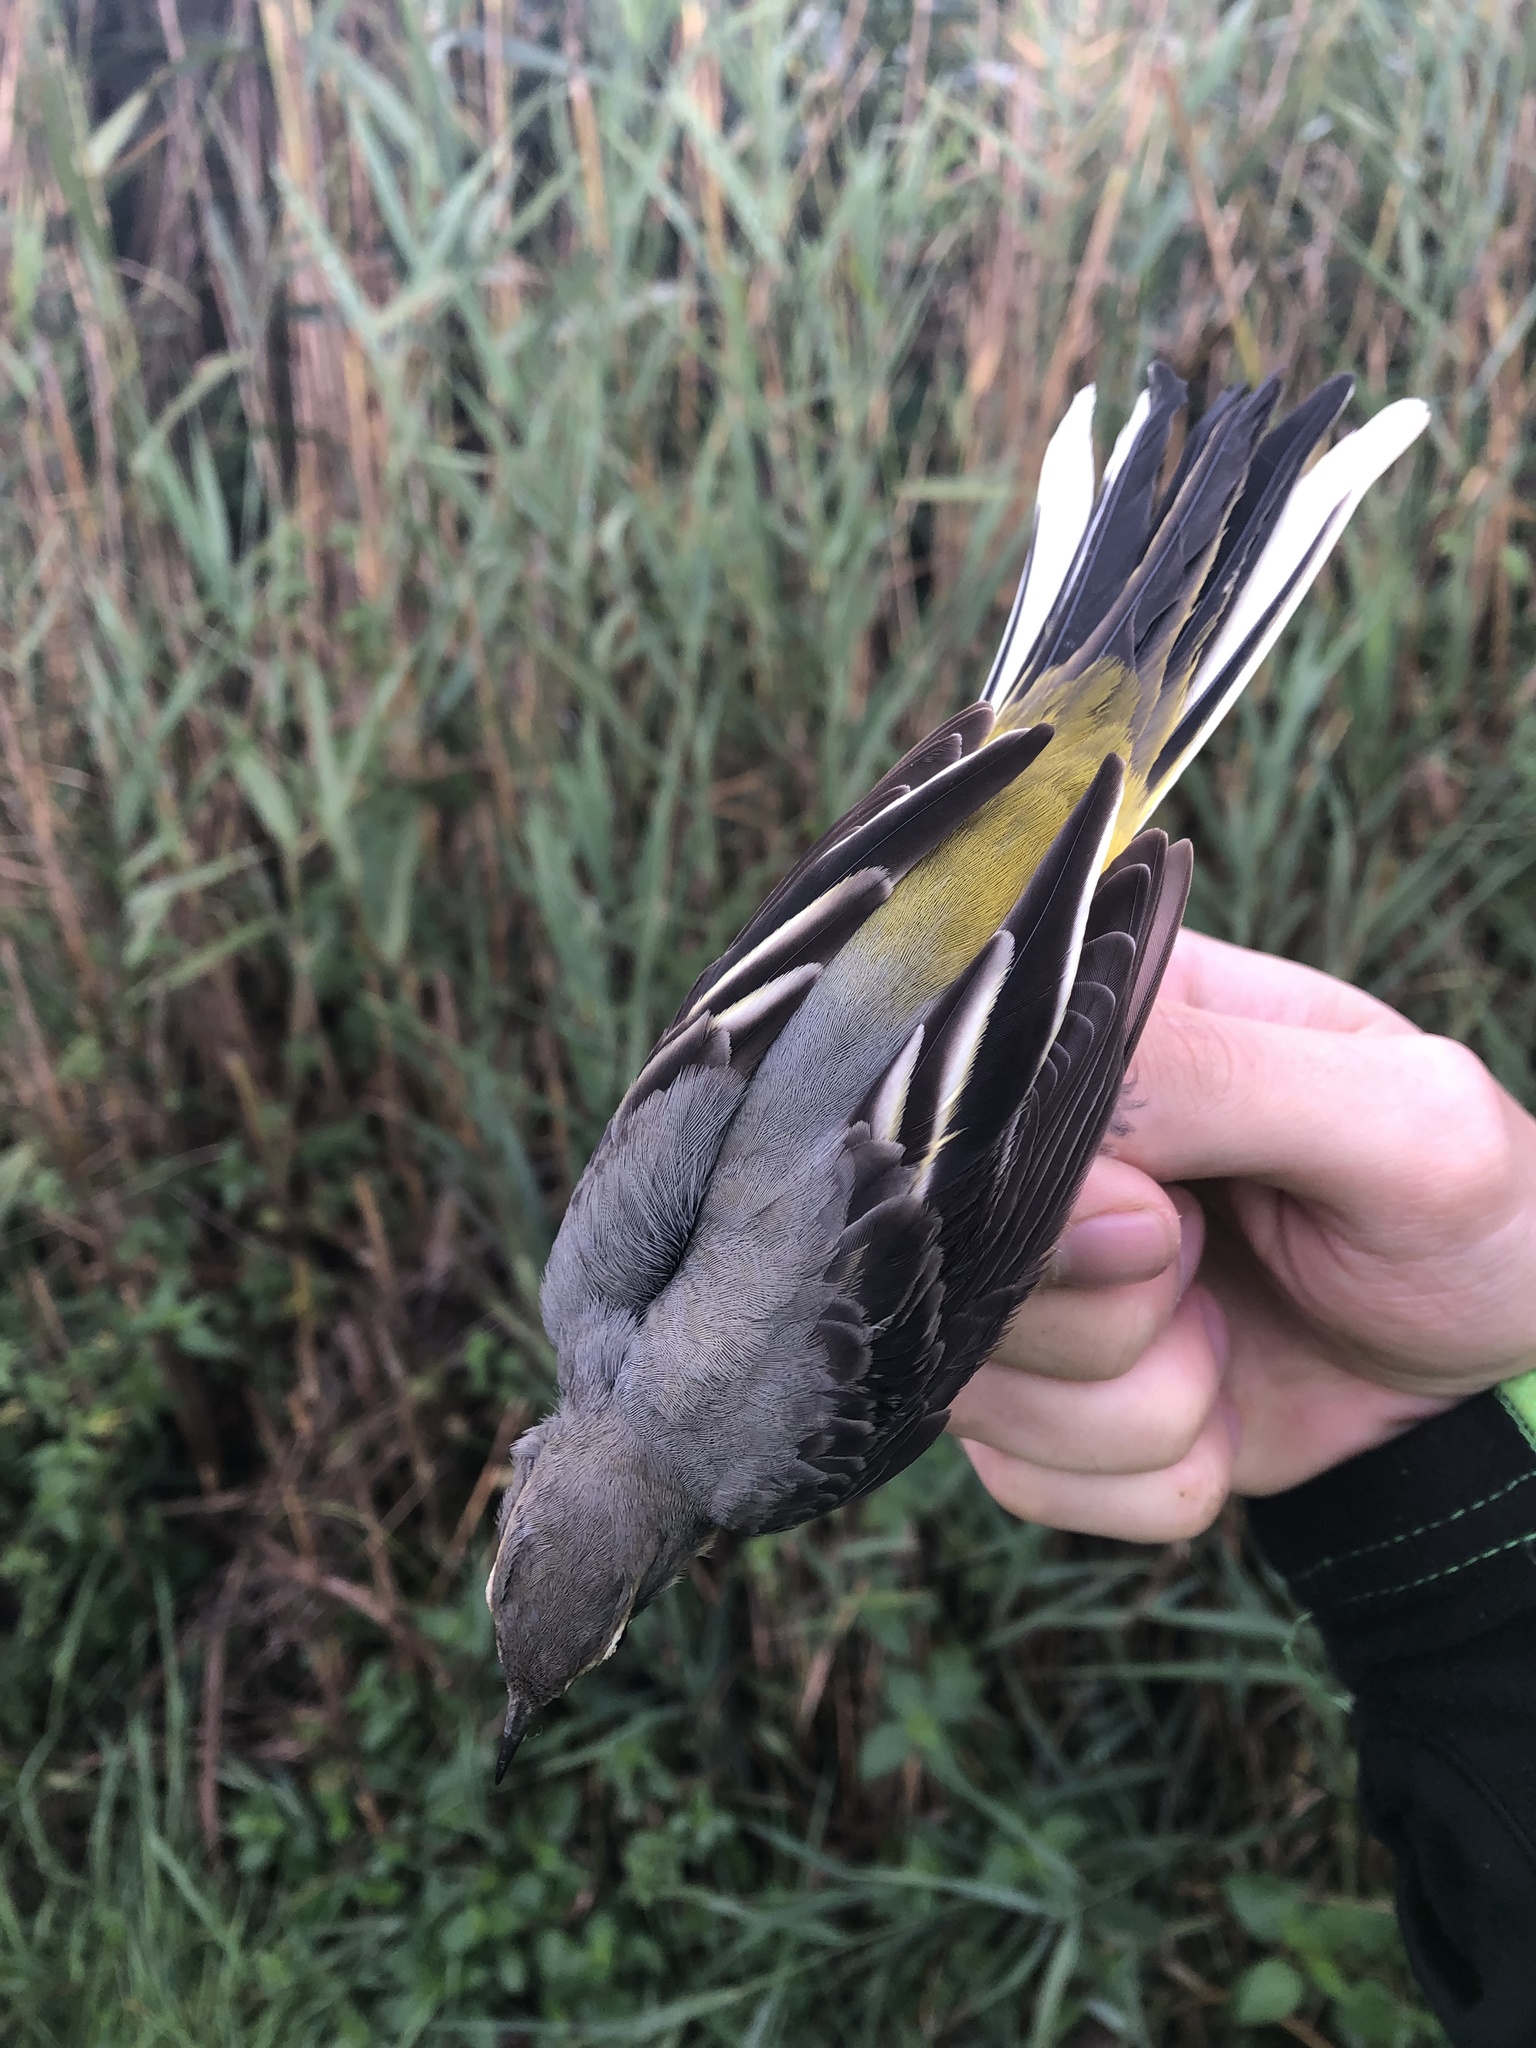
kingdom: Animalia
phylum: Chordata
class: Aves
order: Passeriformes
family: Motacillidae
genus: Motacilla
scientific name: Motacilla cinerea
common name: Grey wagtail
